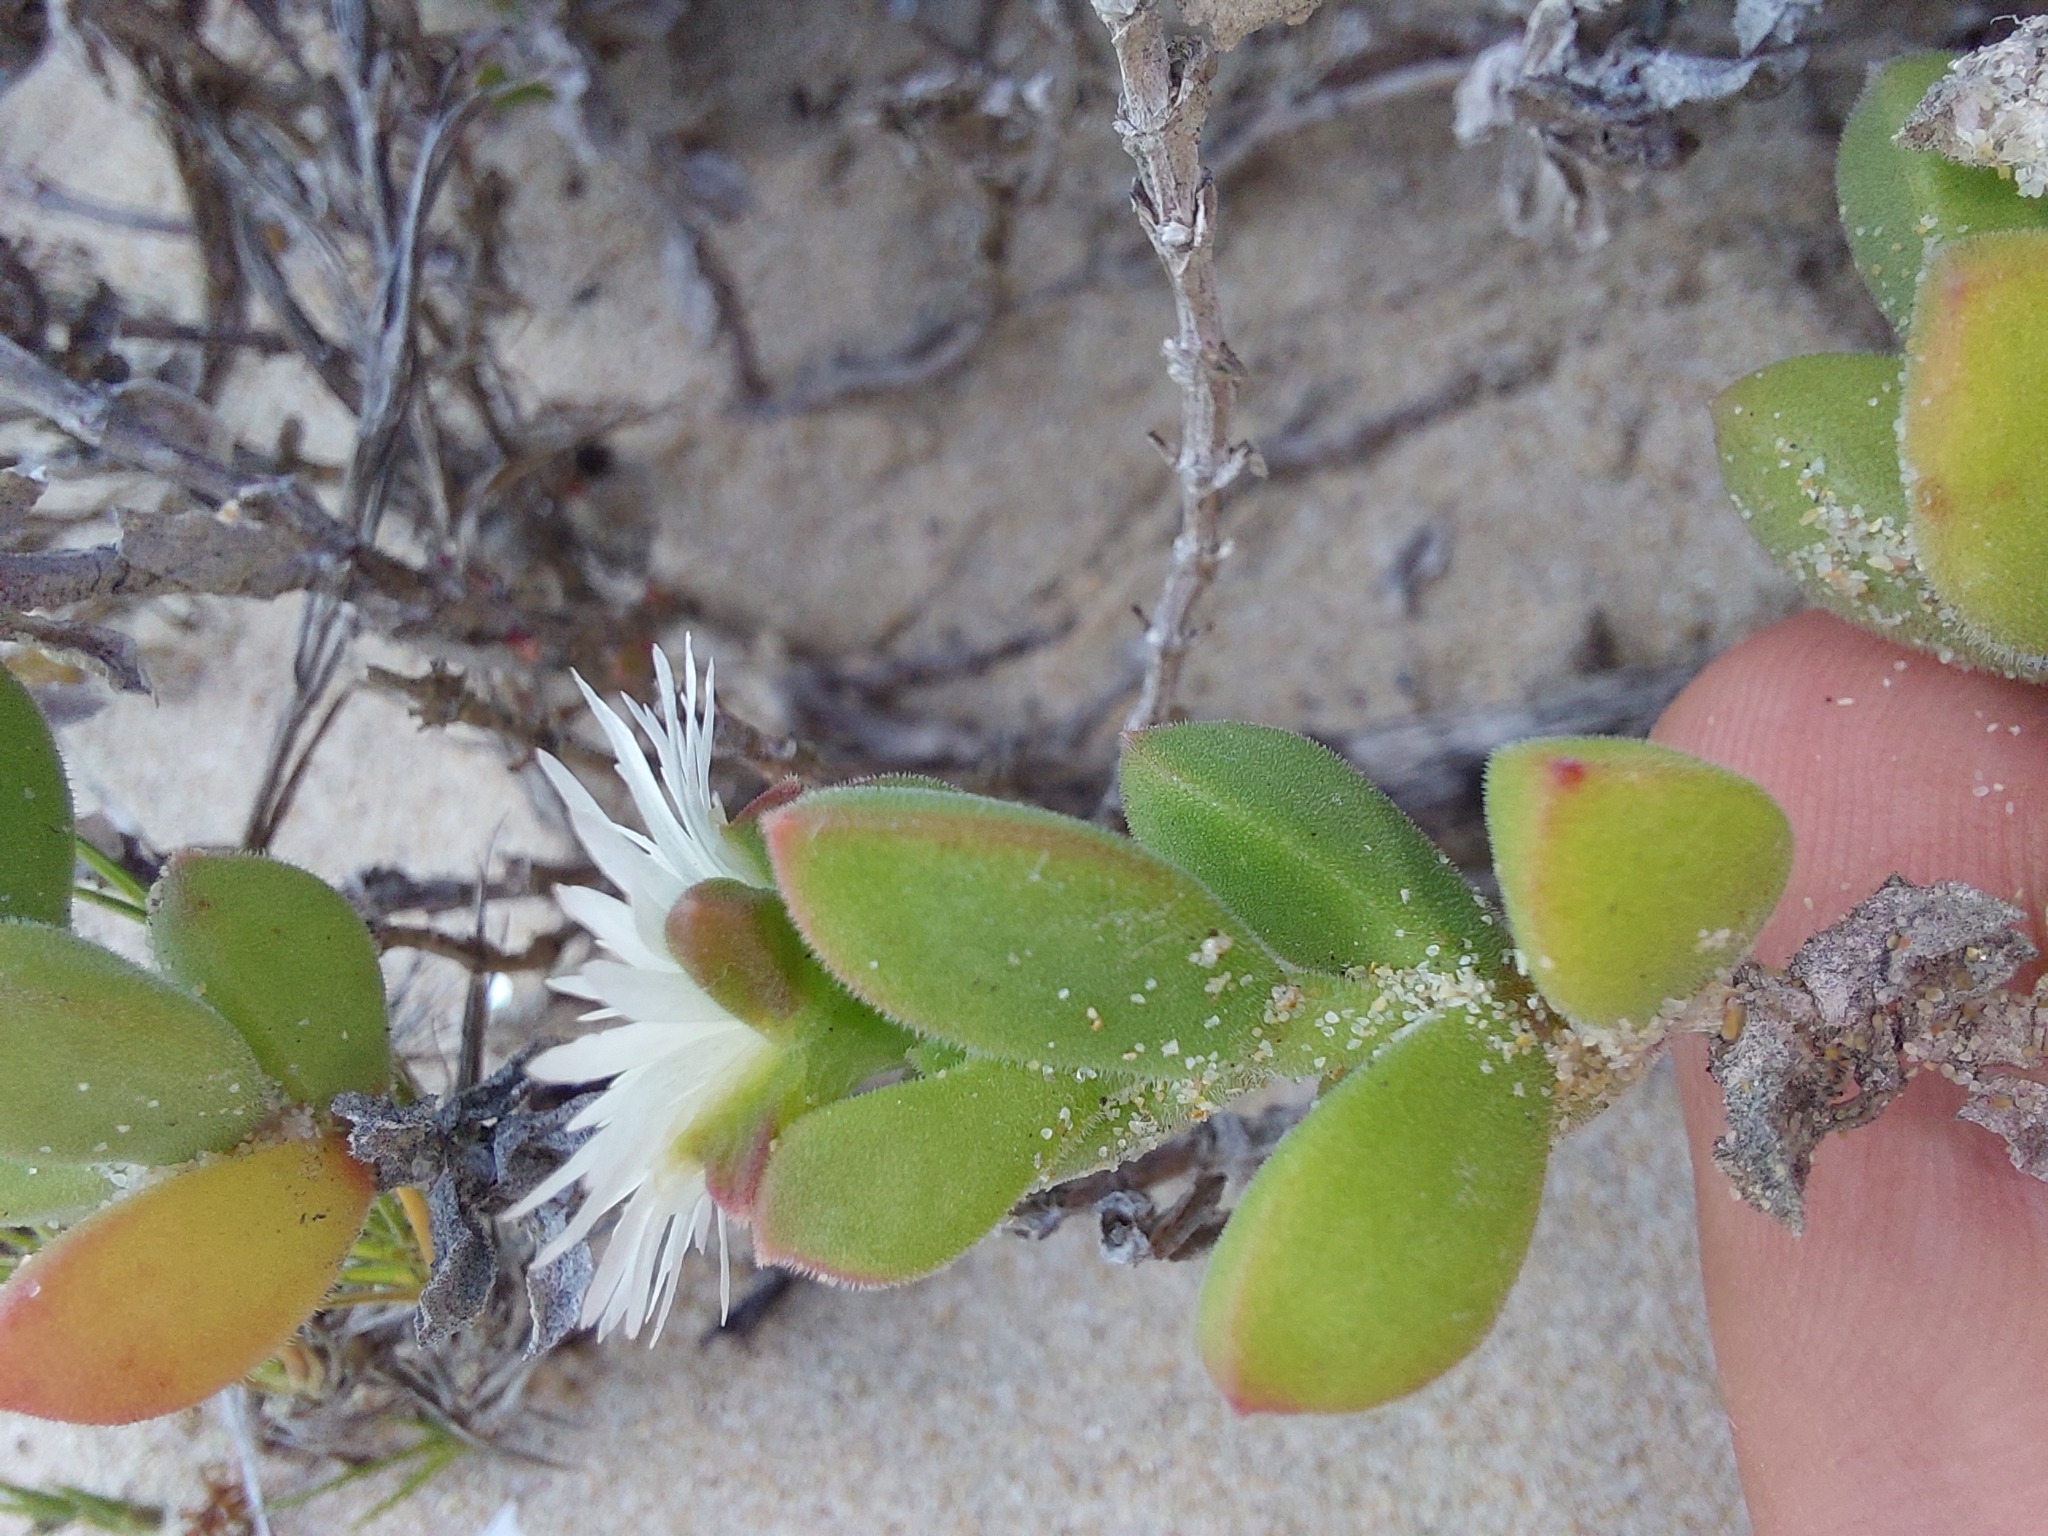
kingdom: Plantae
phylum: Tracheophyta
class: Magnoliopsida
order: Caryophyllales
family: Aizoaceae
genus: Delosperma
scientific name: Delosperma patersoniae
